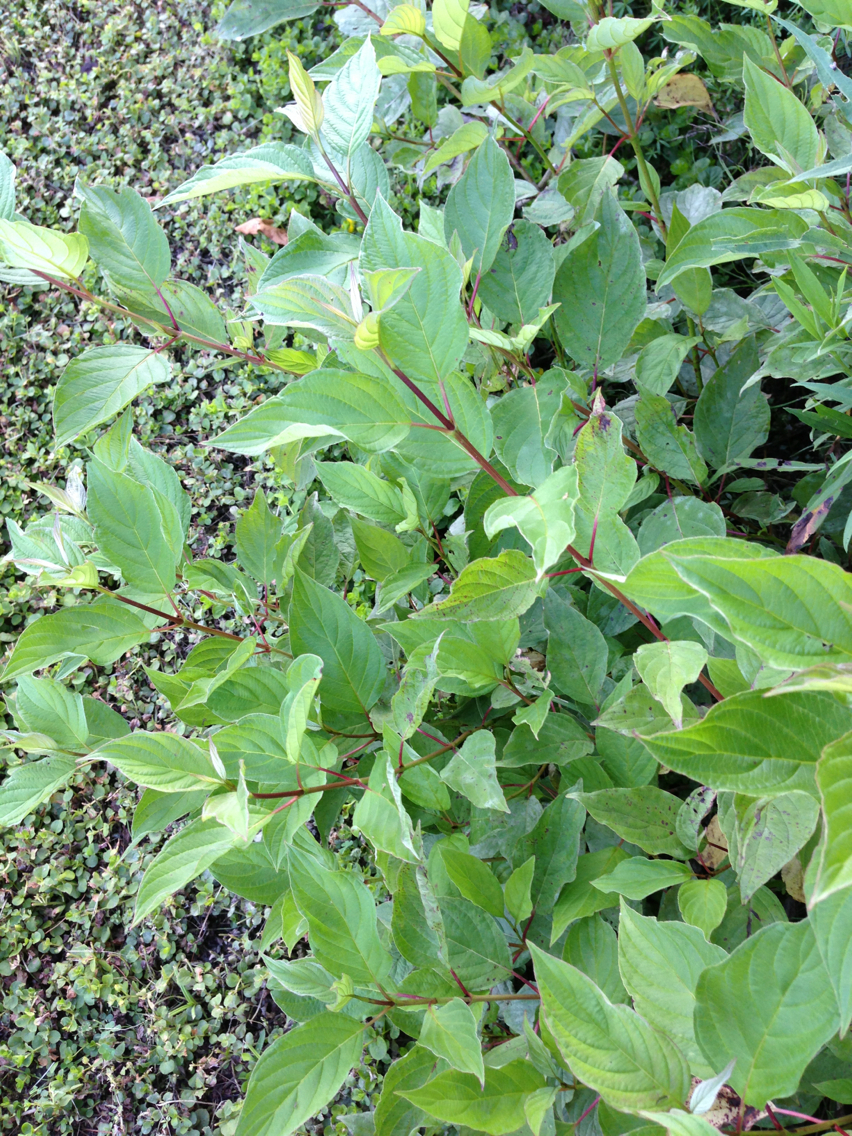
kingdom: Plantae
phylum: Tracheophyta
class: Magnoliopsida
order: Cornales
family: Cornaceae
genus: Cornus
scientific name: Cornus sericea
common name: Red-osier dogwood
